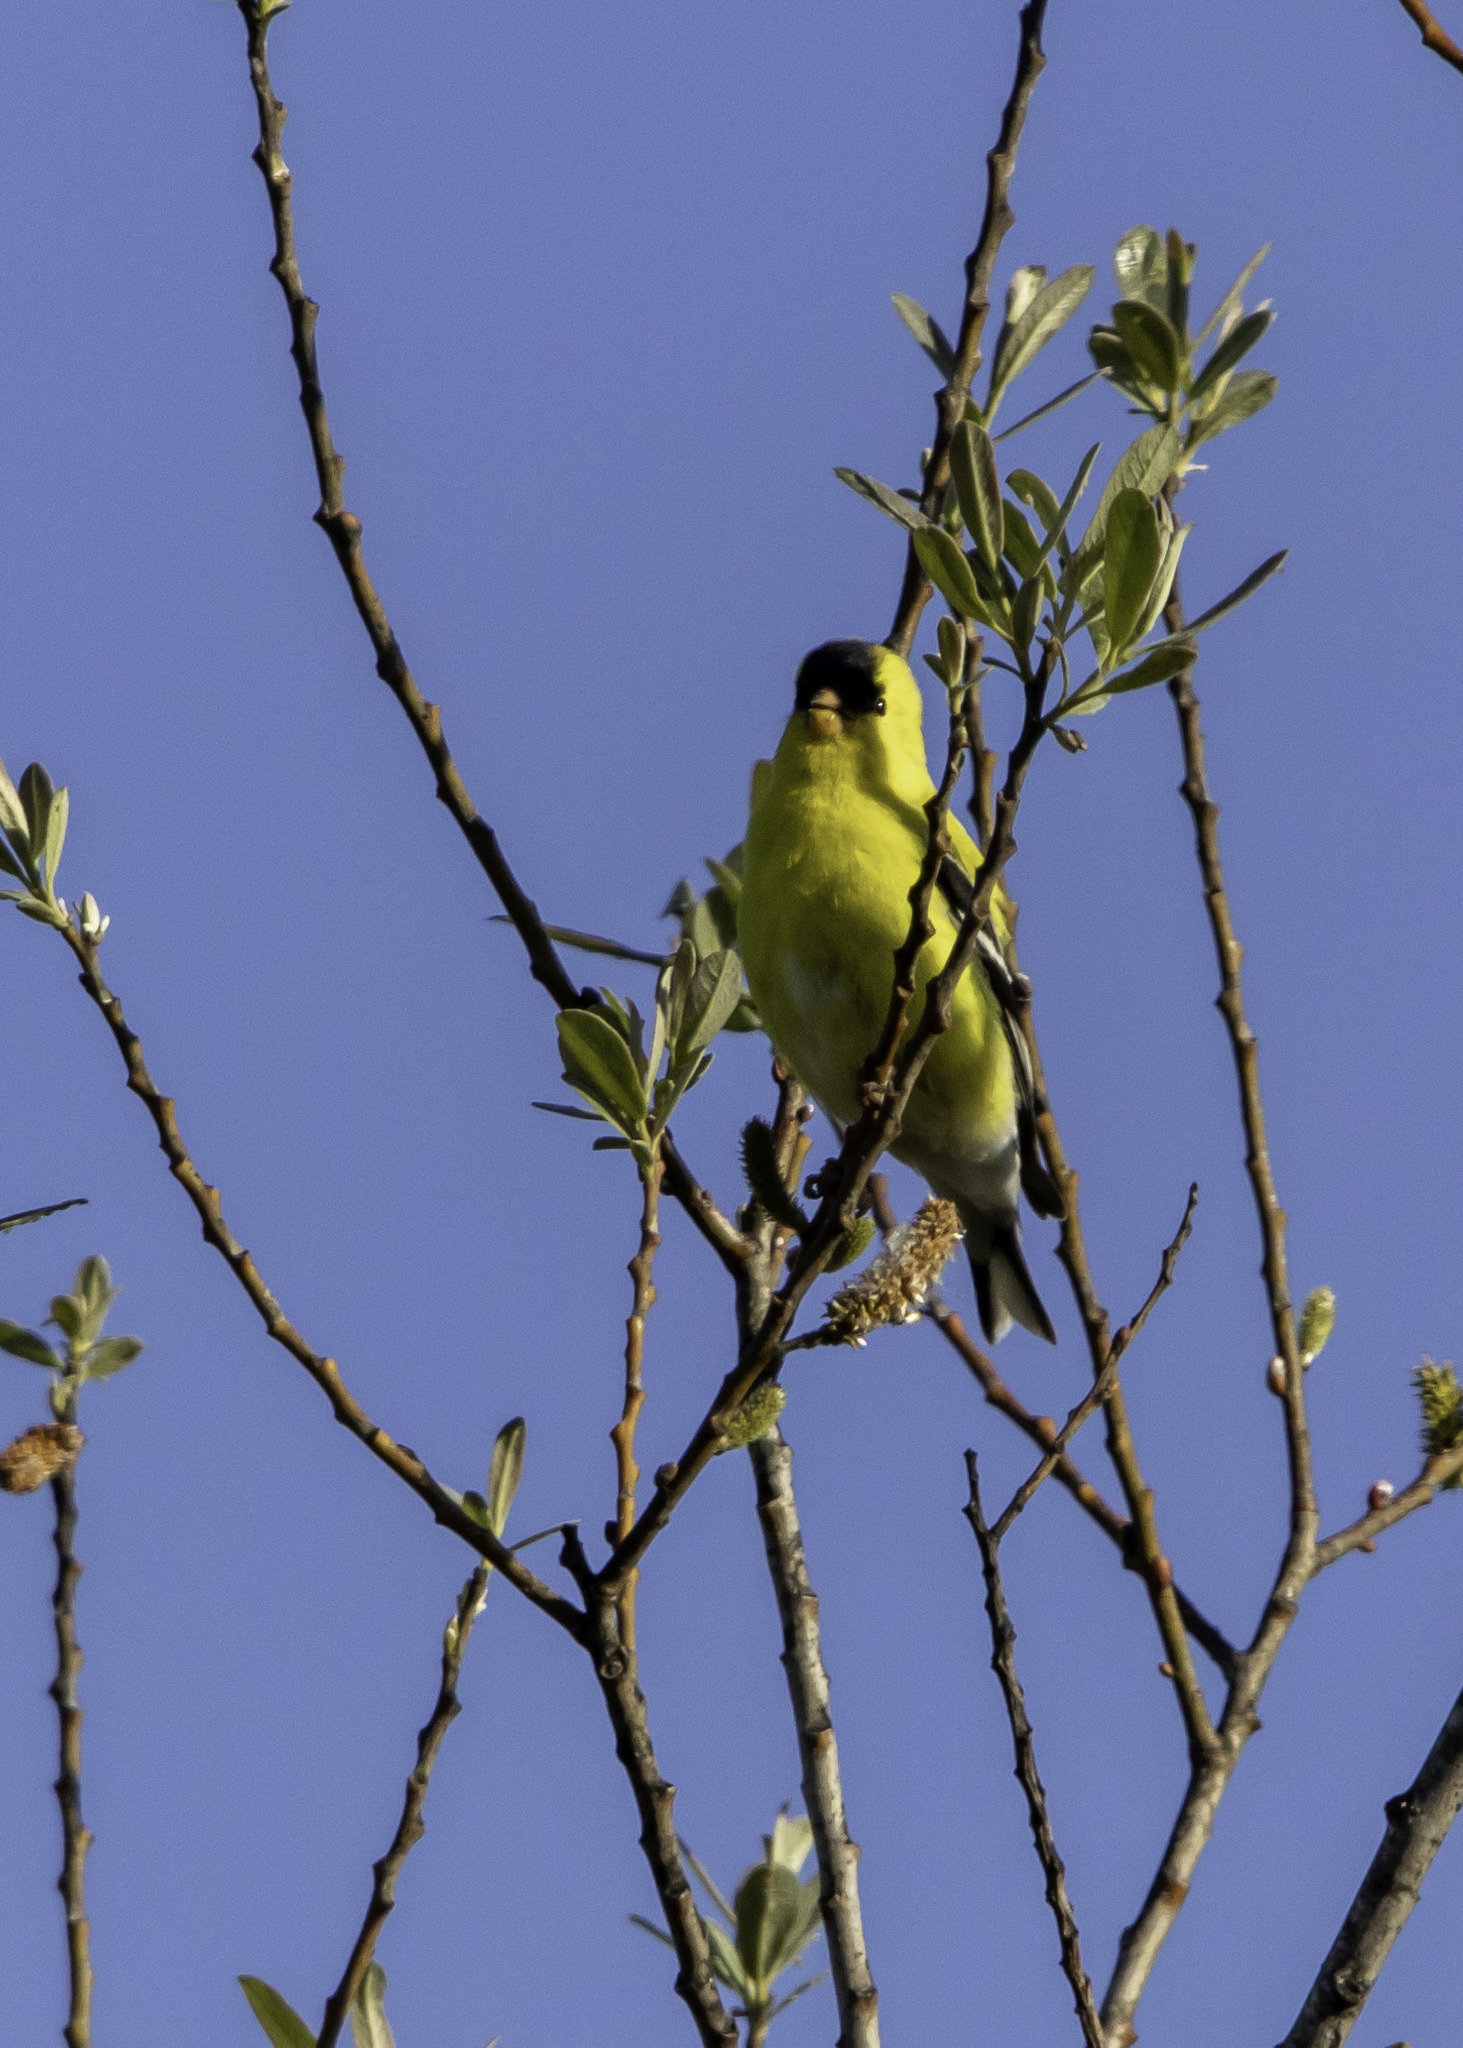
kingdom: Animalia
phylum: Chordata
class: Aves
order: Passeriformes
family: Fringillidae
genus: Spinus
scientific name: Spinus tristis
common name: American goldfinch
